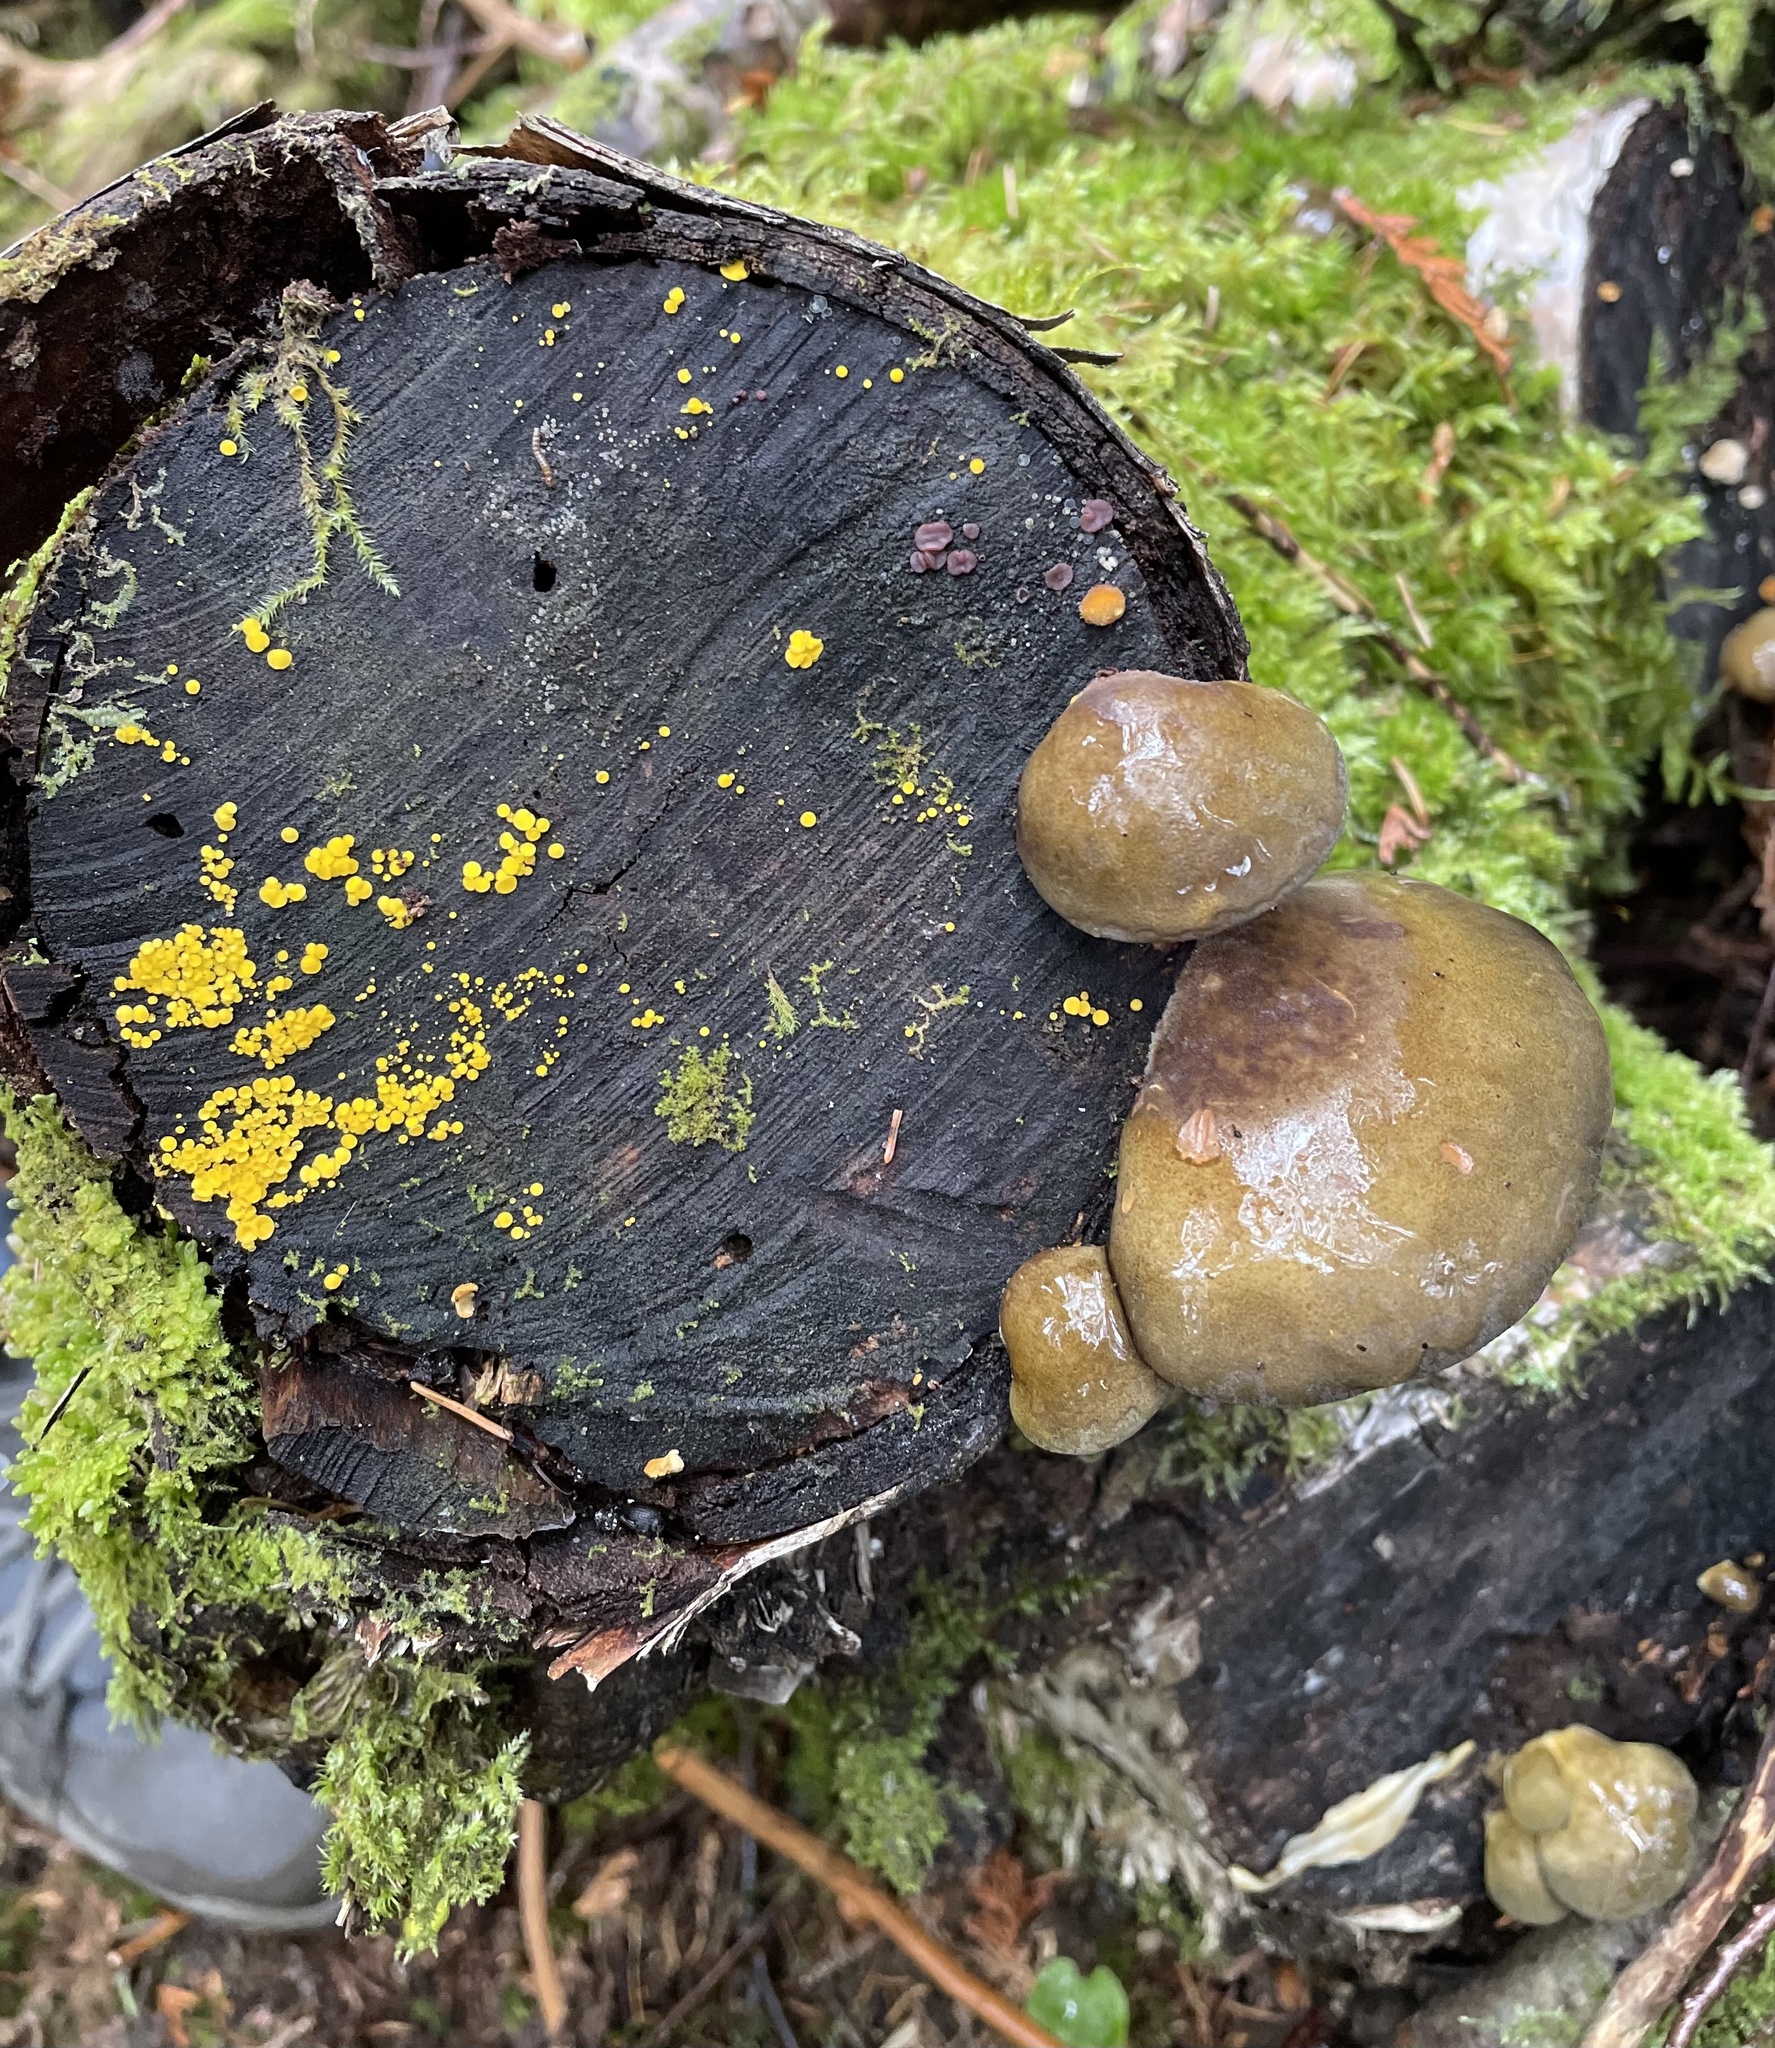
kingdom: Fungi
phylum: Basidiomycota
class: Agaricomycetes
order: Agaricales
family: Sarcomyxaceae
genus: Sarcomyxa
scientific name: Sarcomyxa serotina
